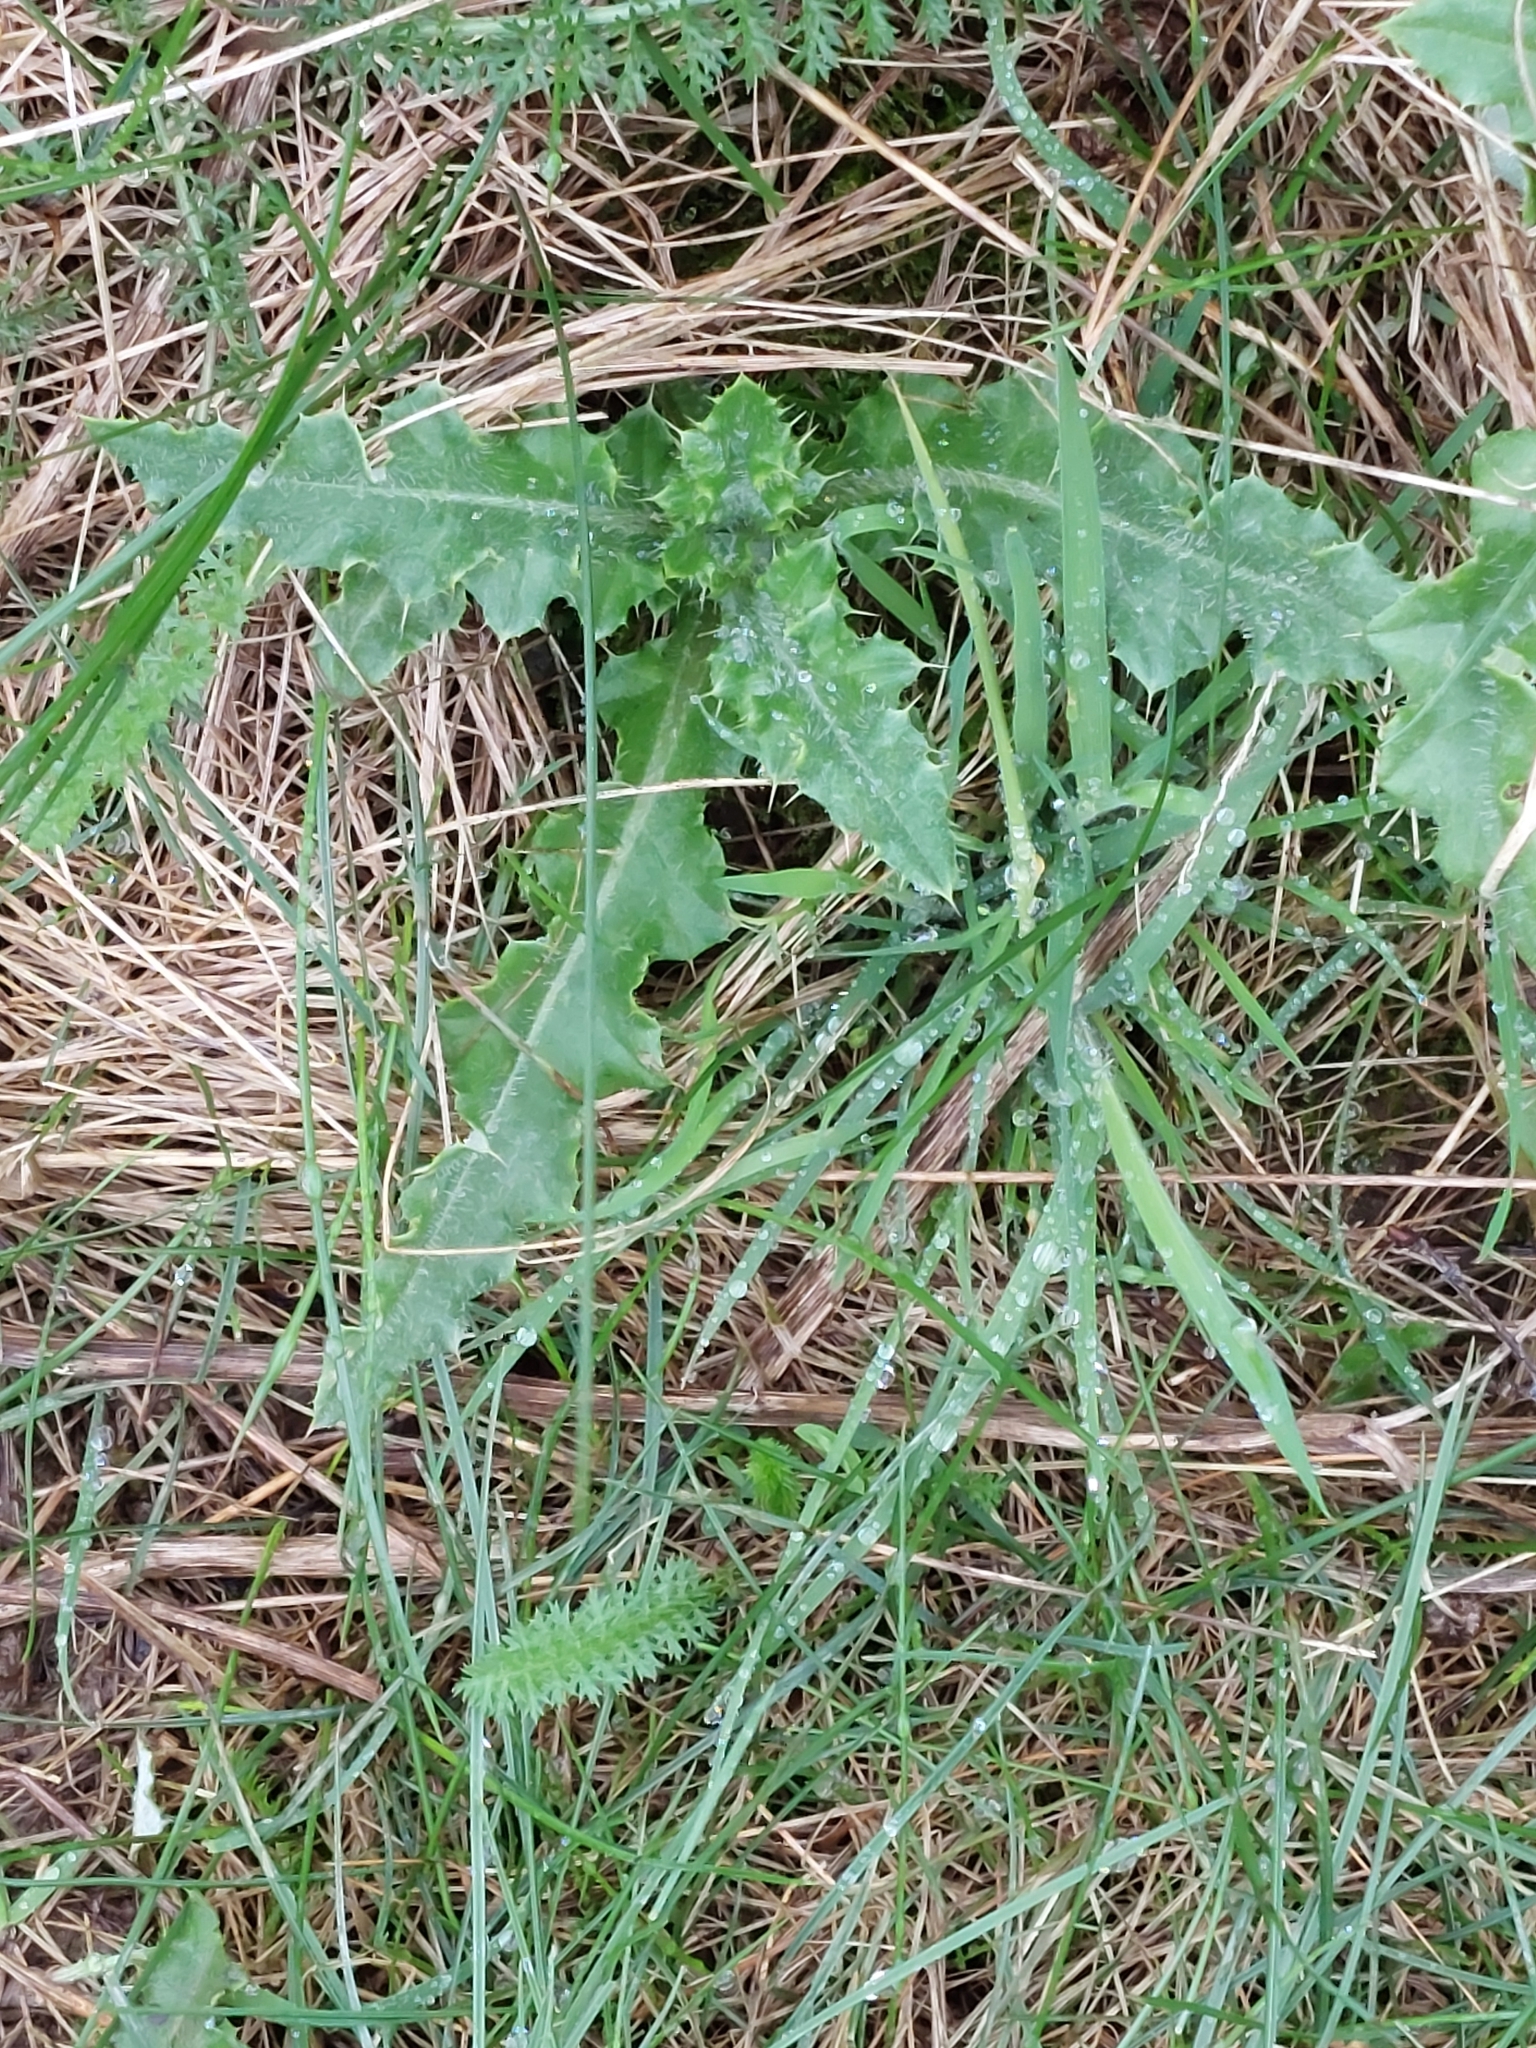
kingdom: Plantae
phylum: Tracheophyta
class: Magnoliopsida
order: Asterales
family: Asteraceae
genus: Cirsium
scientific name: Cirsium arvense
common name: Creeping thistle
